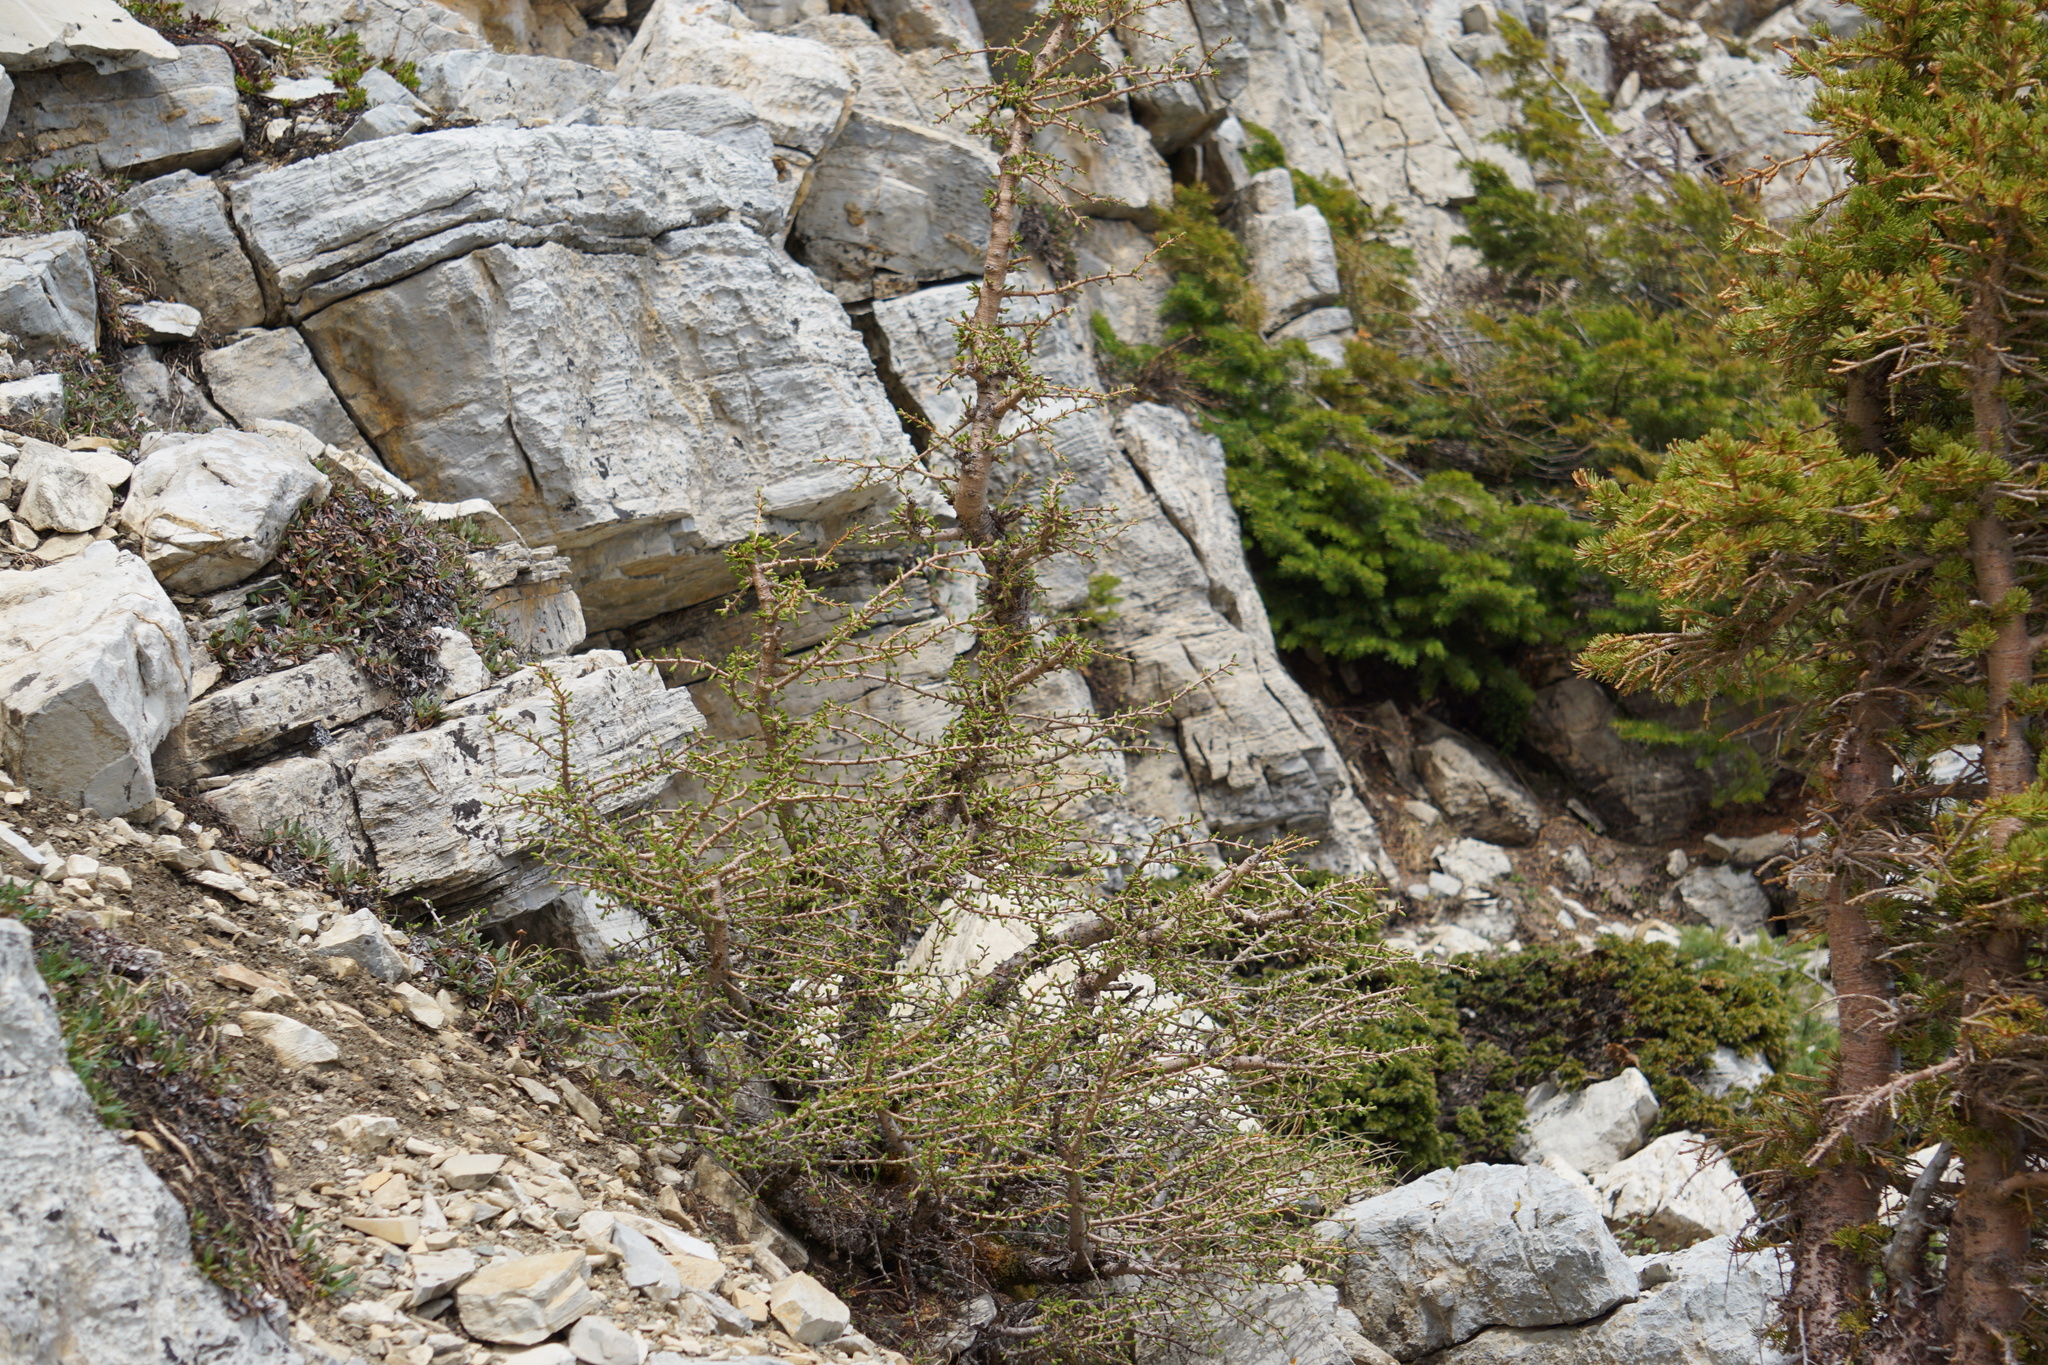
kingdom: Plantae
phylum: Tracheophyta
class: Pinopsida
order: Pinales
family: Pinaceae
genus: Larix
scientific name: Larix lyallii
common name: Alpine larch
